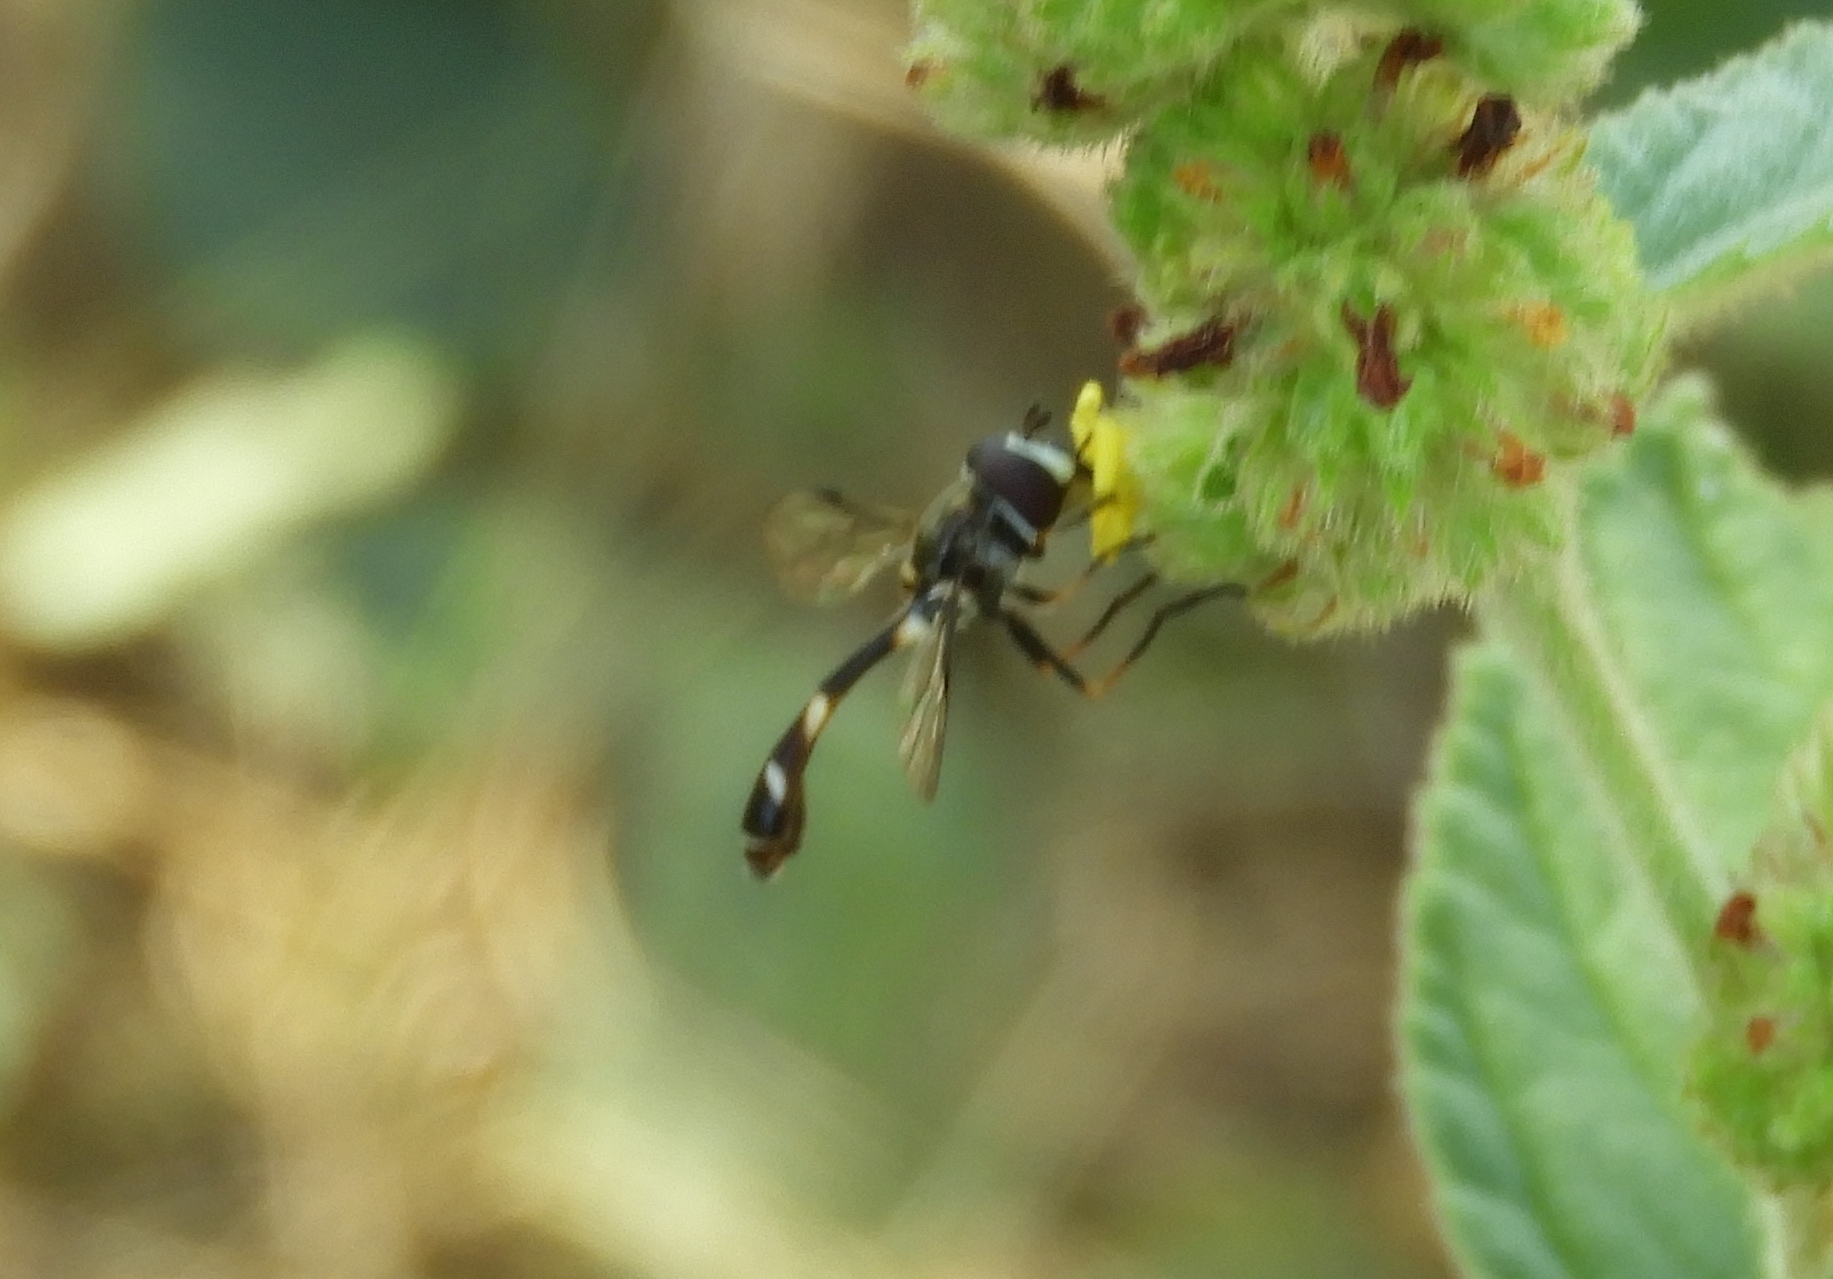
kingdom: Animalia
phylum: Arthropoda
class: Insecta
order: Diptera
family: Syrphidae
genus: Dioprosopa
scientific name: Dioprosopa clavatus
